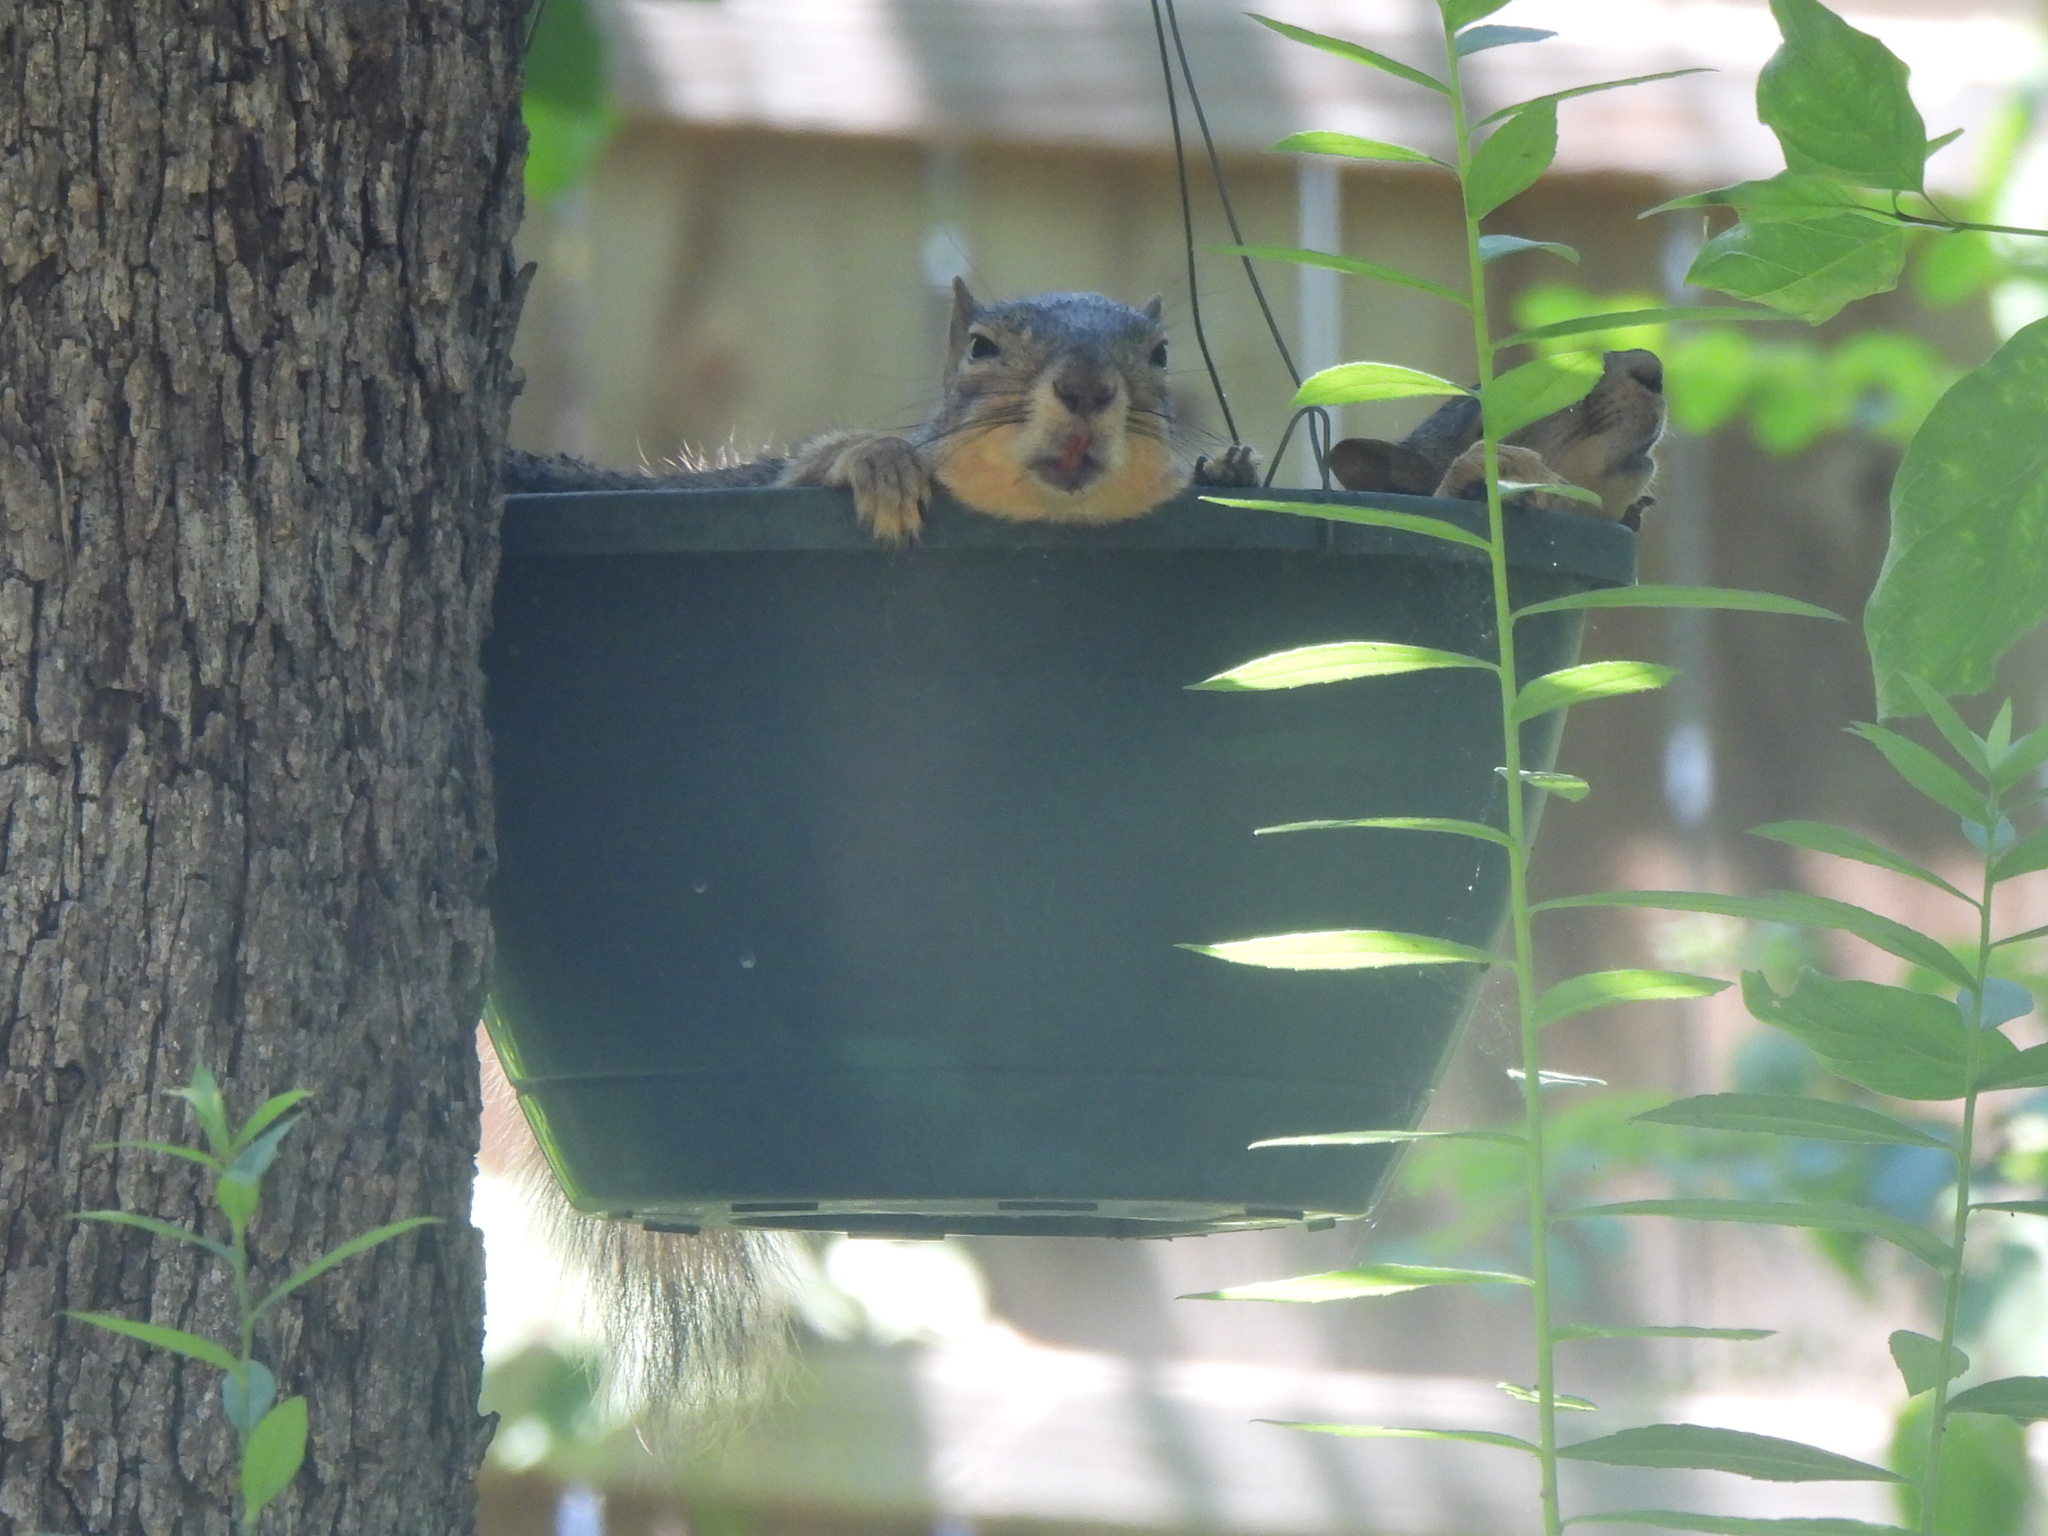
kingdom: Animalia
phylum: Chordata
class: Mammalia
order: Rodentia
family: Sciuridae
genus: Sciurus
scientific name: Sciurus niger
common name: Fox squirrel
